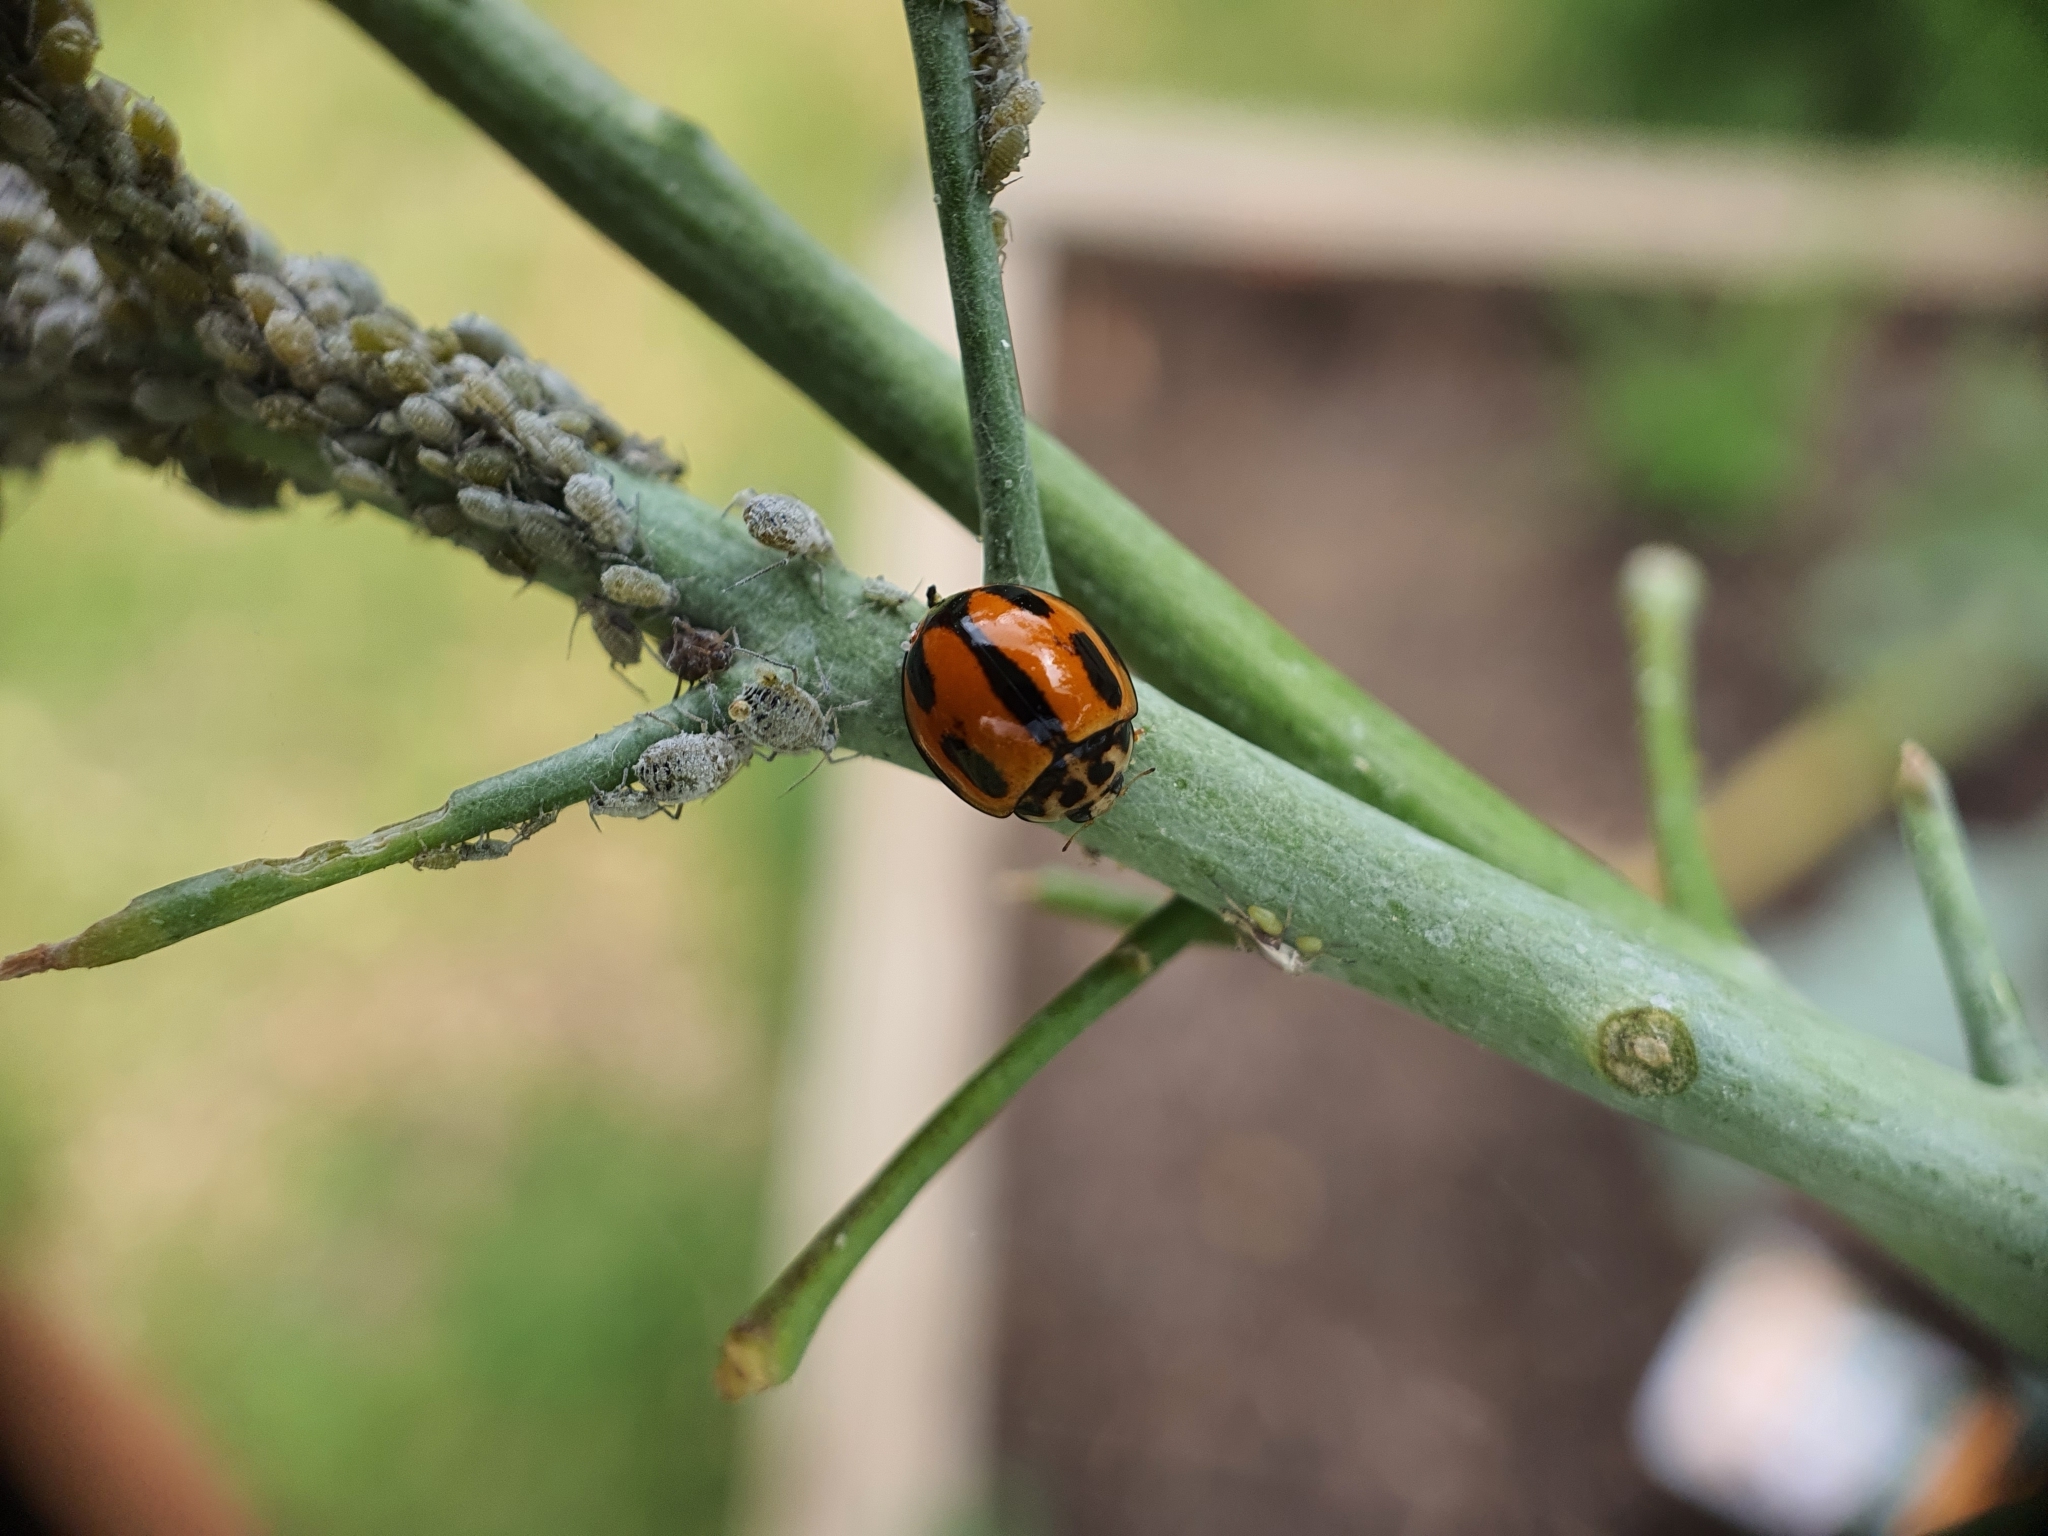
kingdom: Animalia
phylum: Arthropoda
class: Insecta
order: Coleoptera
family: Coccinellidae
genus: Coelophora
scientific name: Coelophora inaequalis
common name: Common australian lady beetle
